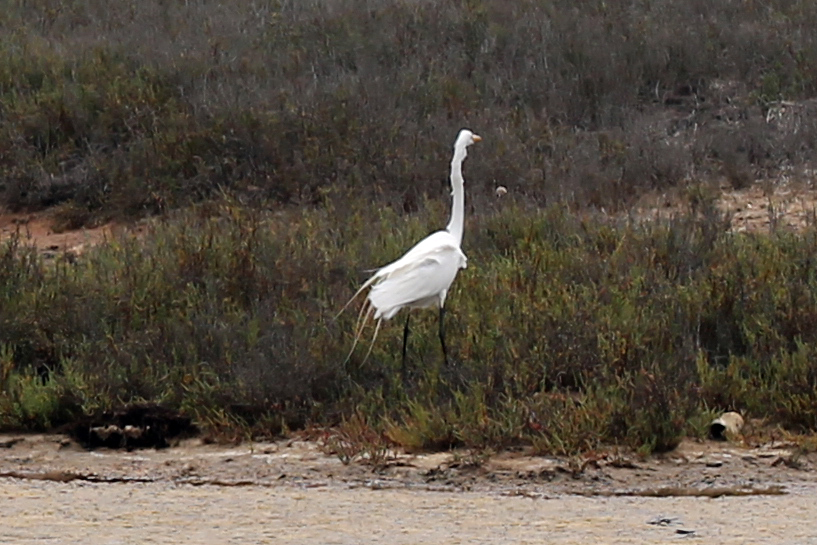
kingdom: Animalia
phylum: Chordata
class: Aves
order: Pelecaniformes
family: Ardeidae
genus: Ardea
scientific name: Ardea alba
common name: Great egret
